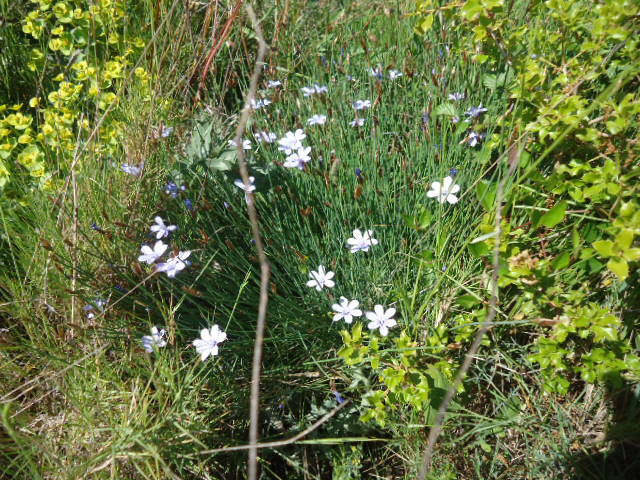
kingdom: Plantae
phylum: Tracheophyta
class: Liliopsida
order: Asparagales
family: Asparagaceae
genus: Aphyllanthes
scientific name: Aphyllanthes monspeliensis
